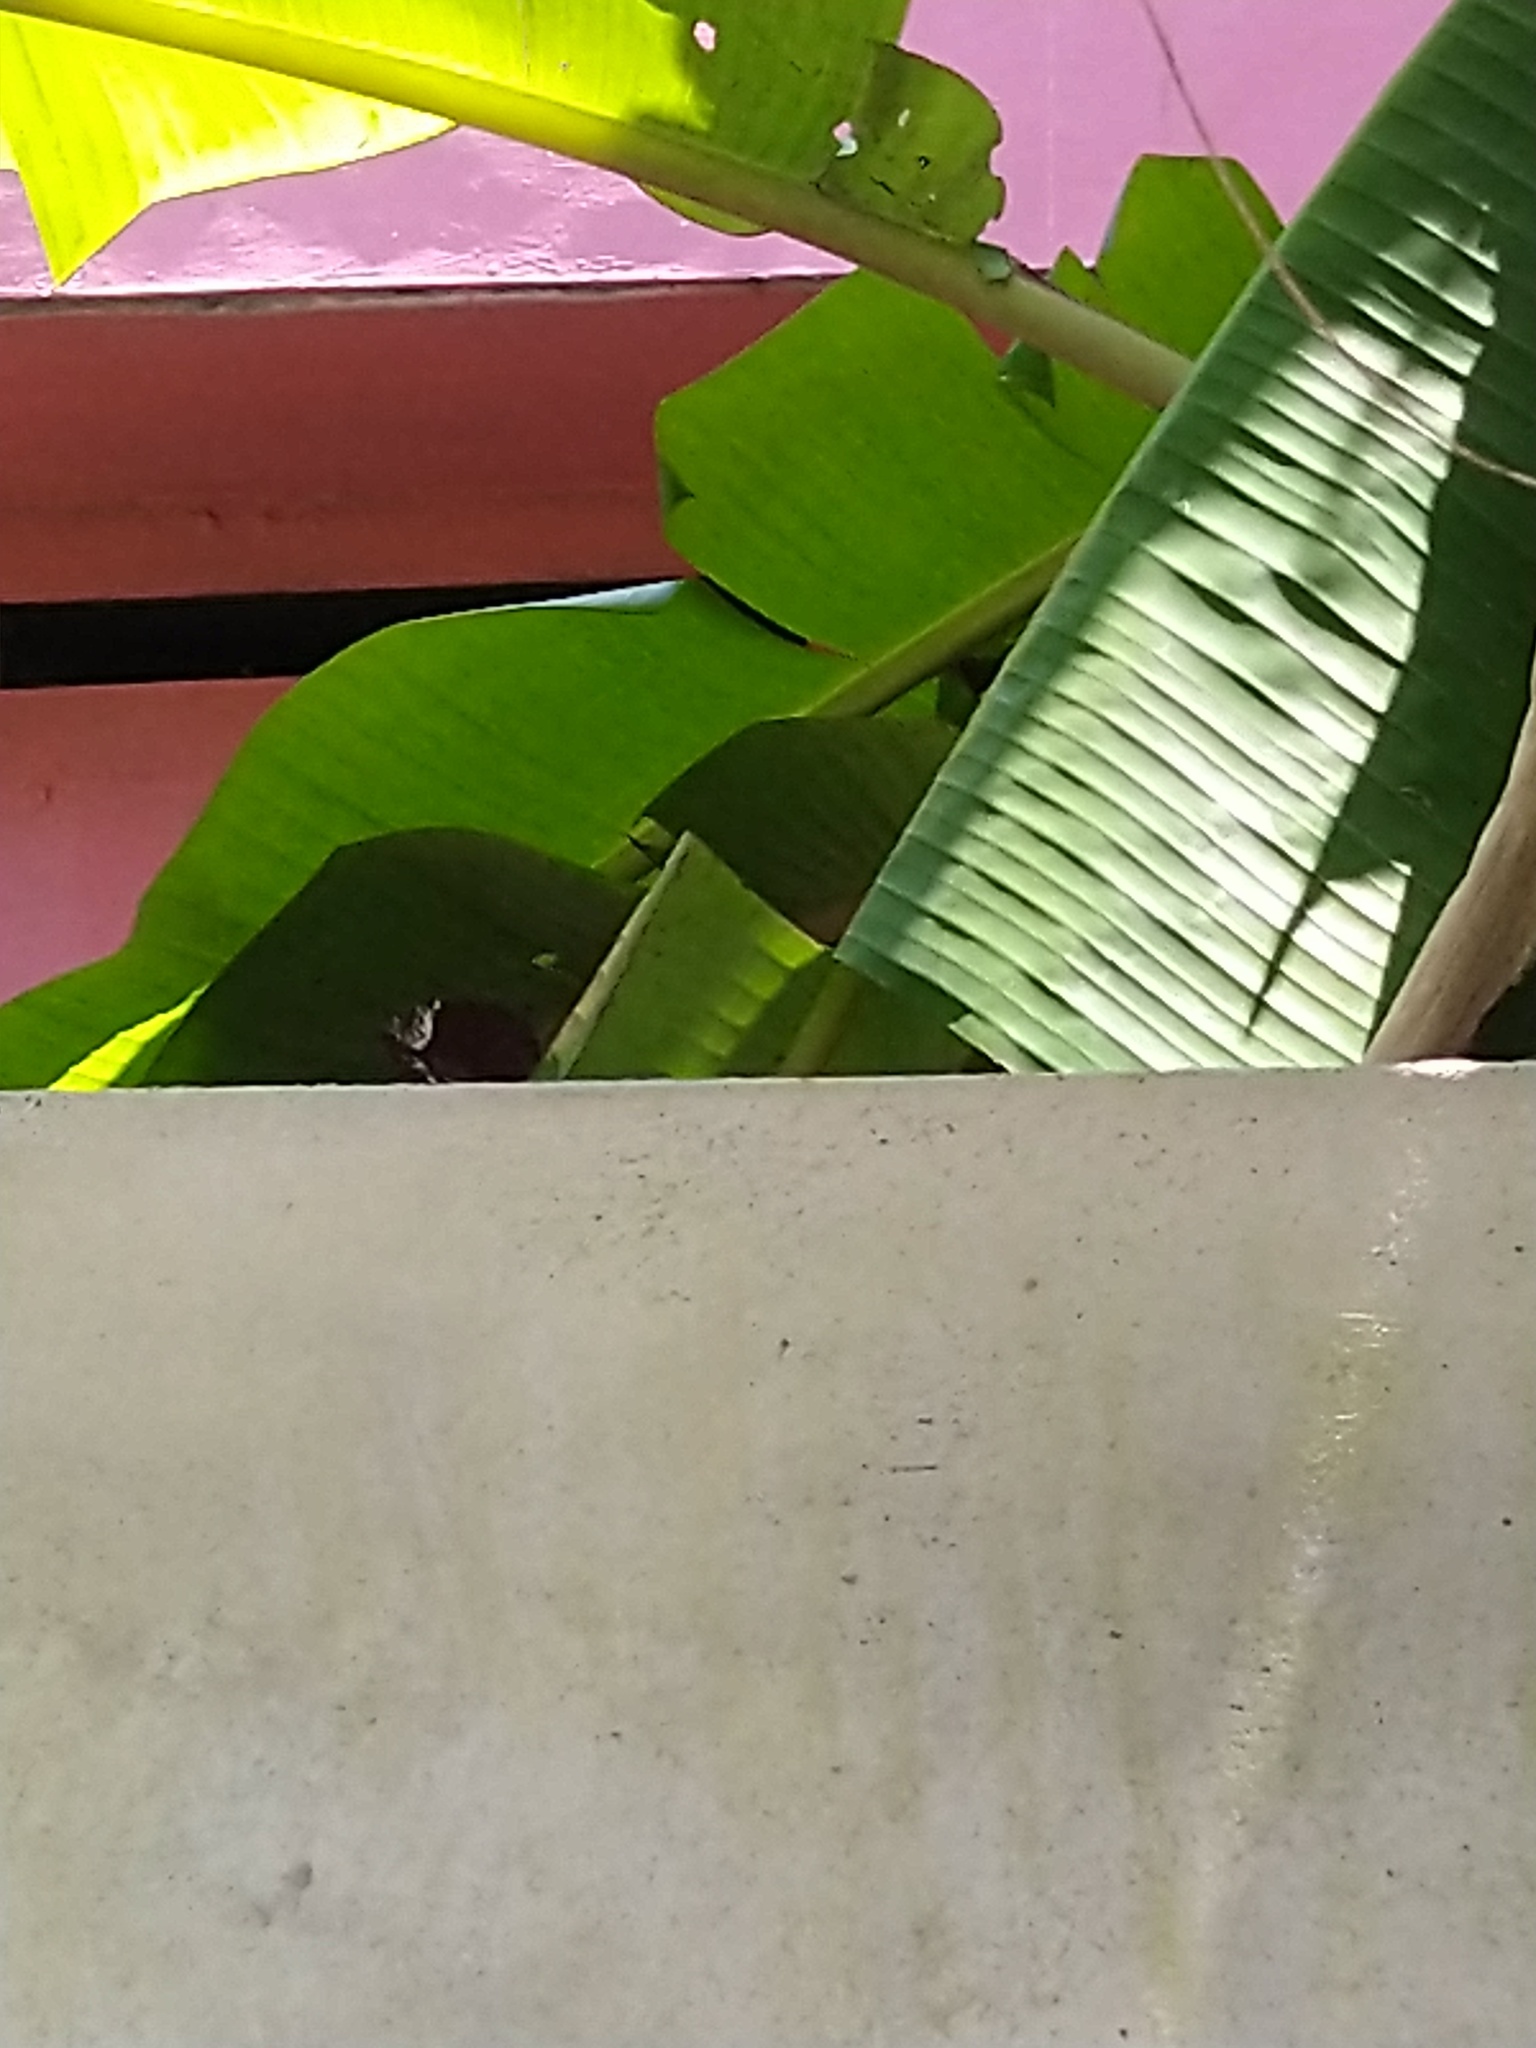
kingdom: Animalia
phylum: Arthropoda
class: Insecta
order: Lepidoptera
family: Nymphalidae
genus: Elymnias
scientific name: Elymnias caudata
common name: Tailed palmfly
